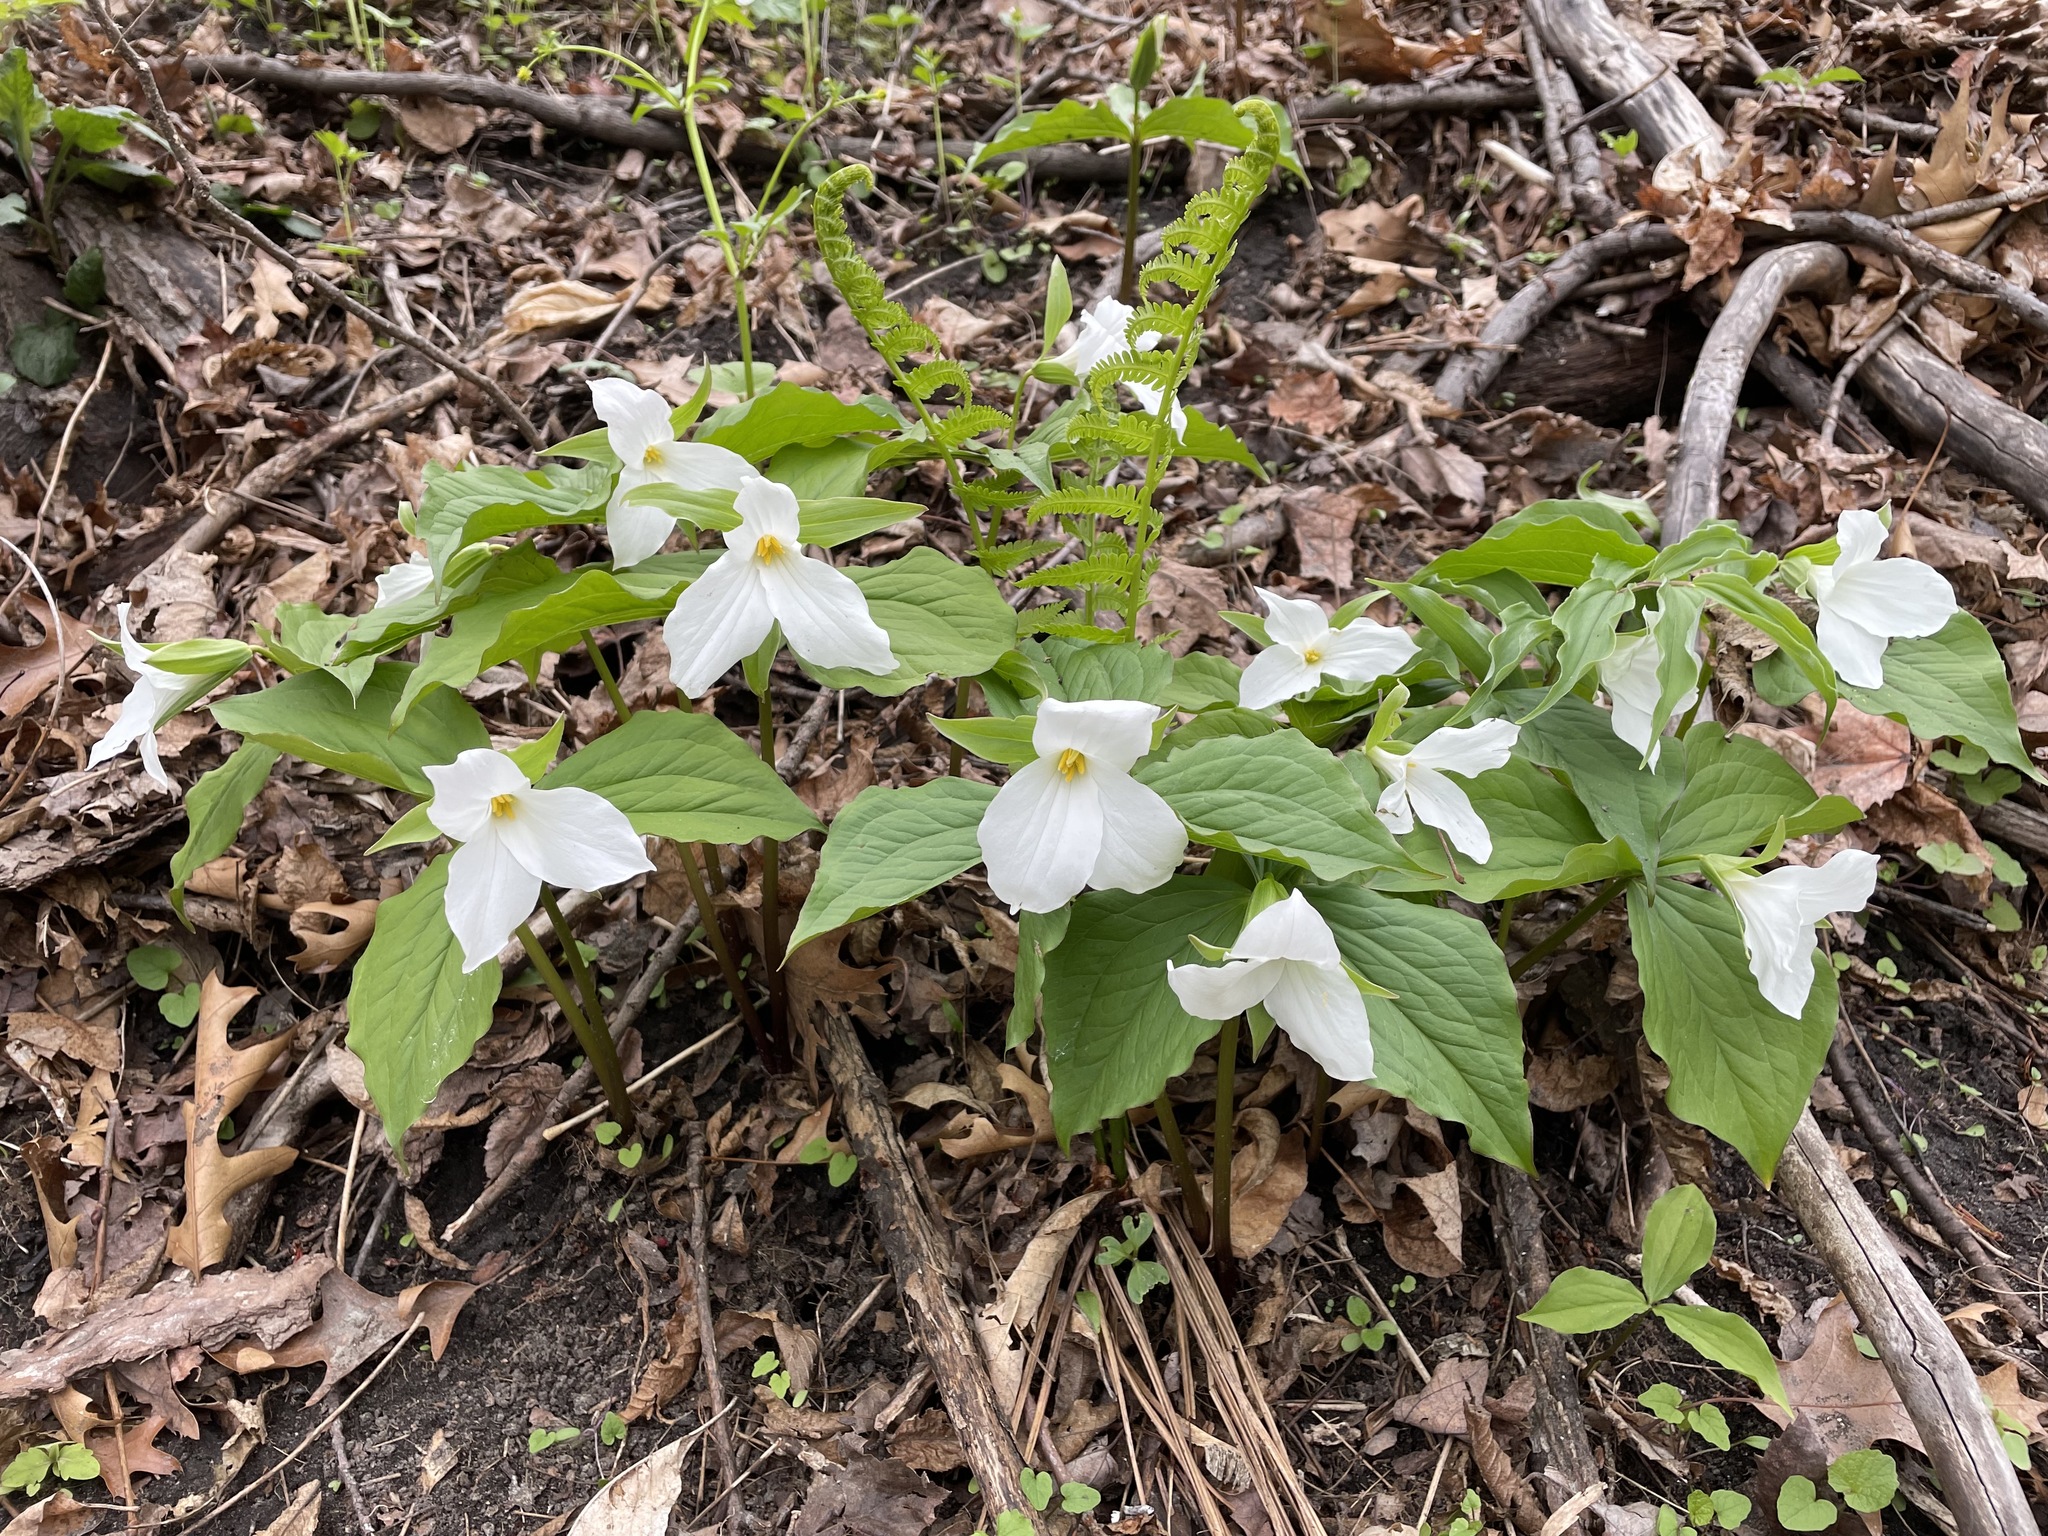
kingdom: Plantae
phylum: Tracheophyta
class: Liliopsida
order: Liliales
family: Melanthiaceae
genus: Trillium
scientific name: Trillium grandiflorum
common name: Great white trillium
